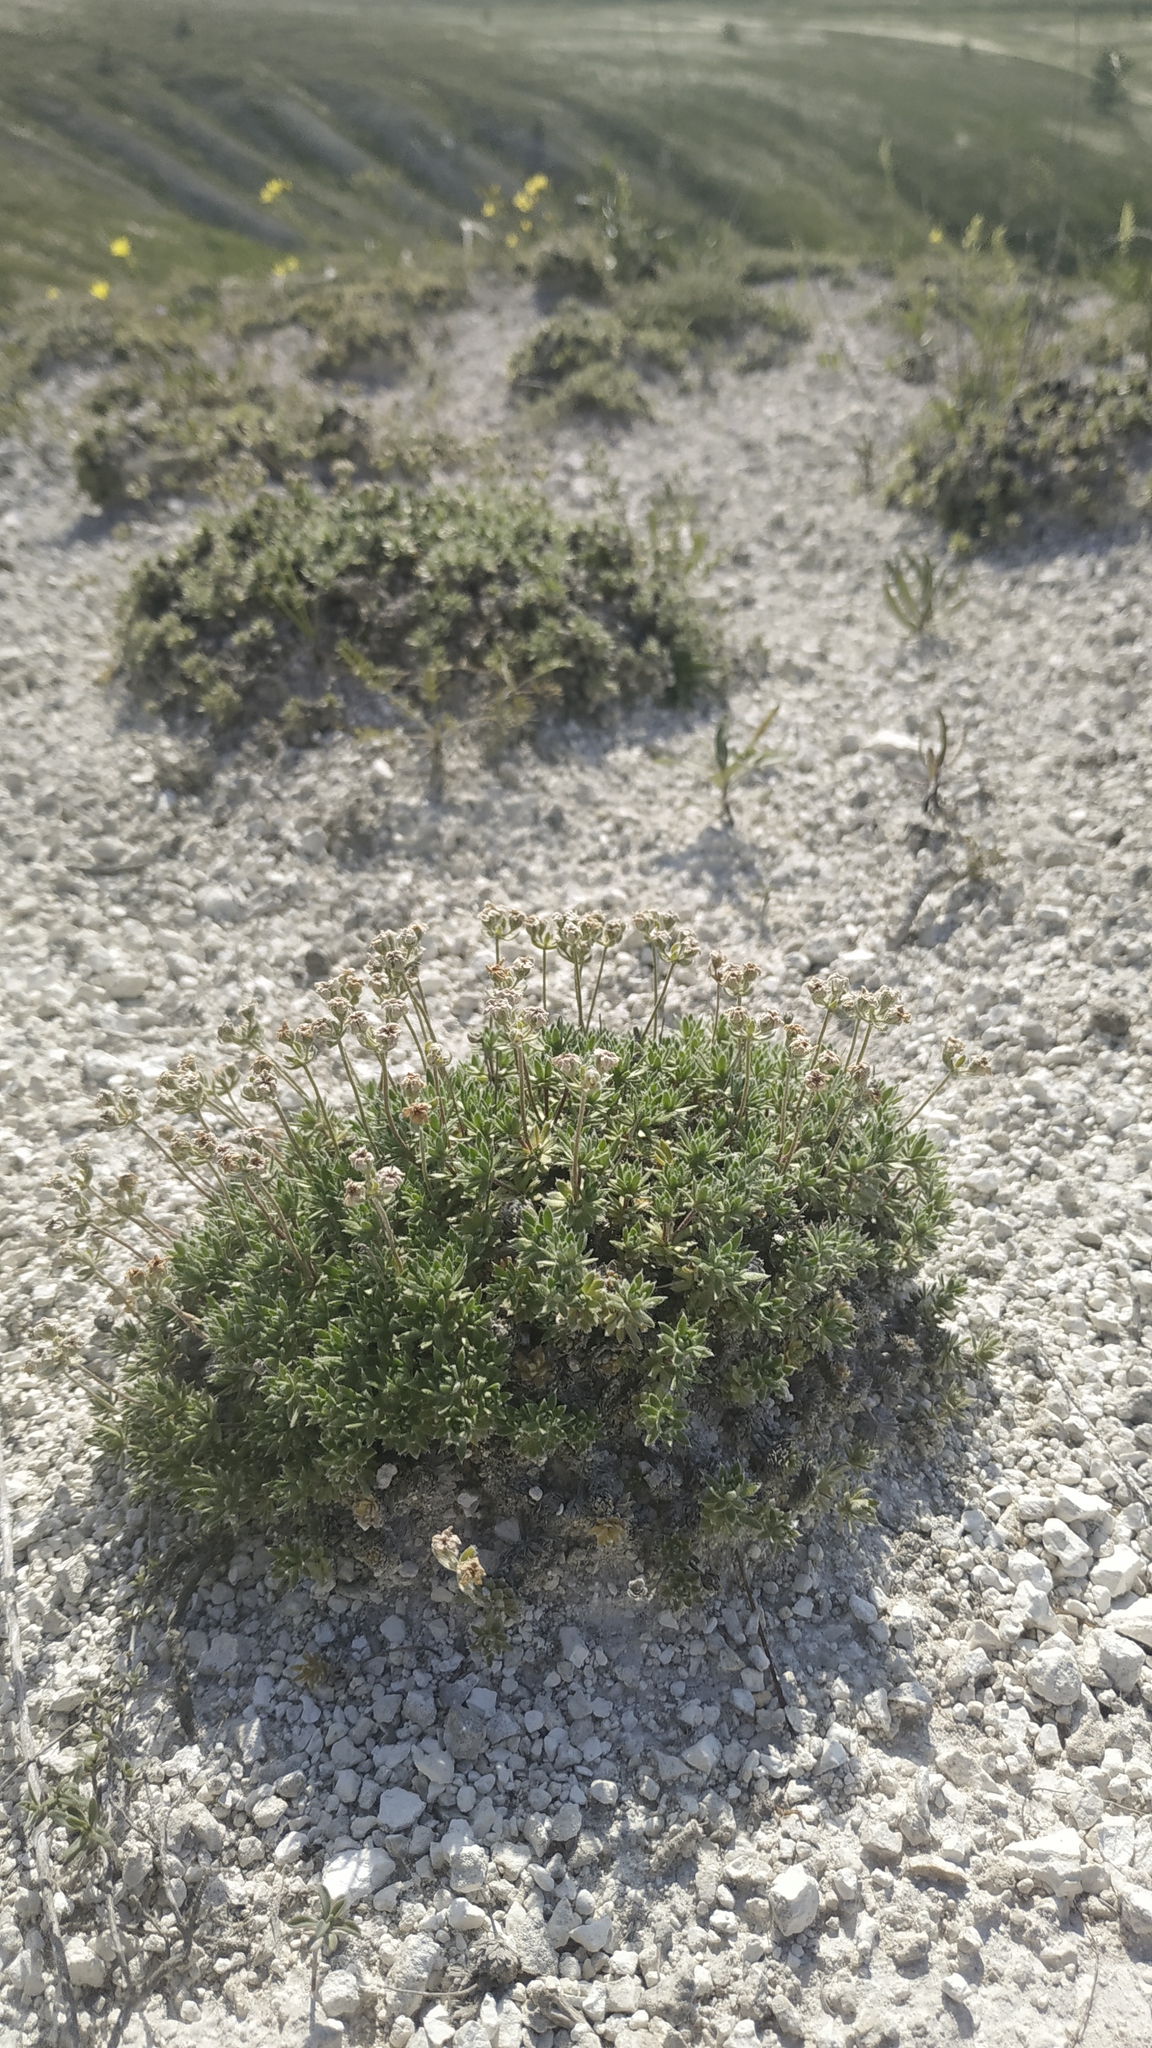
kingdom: Plantae
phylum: Tracheophyta
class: Magnoliopsida
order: Ericales
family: Primulaceae
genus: Androsace
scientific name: Androsace villosa
